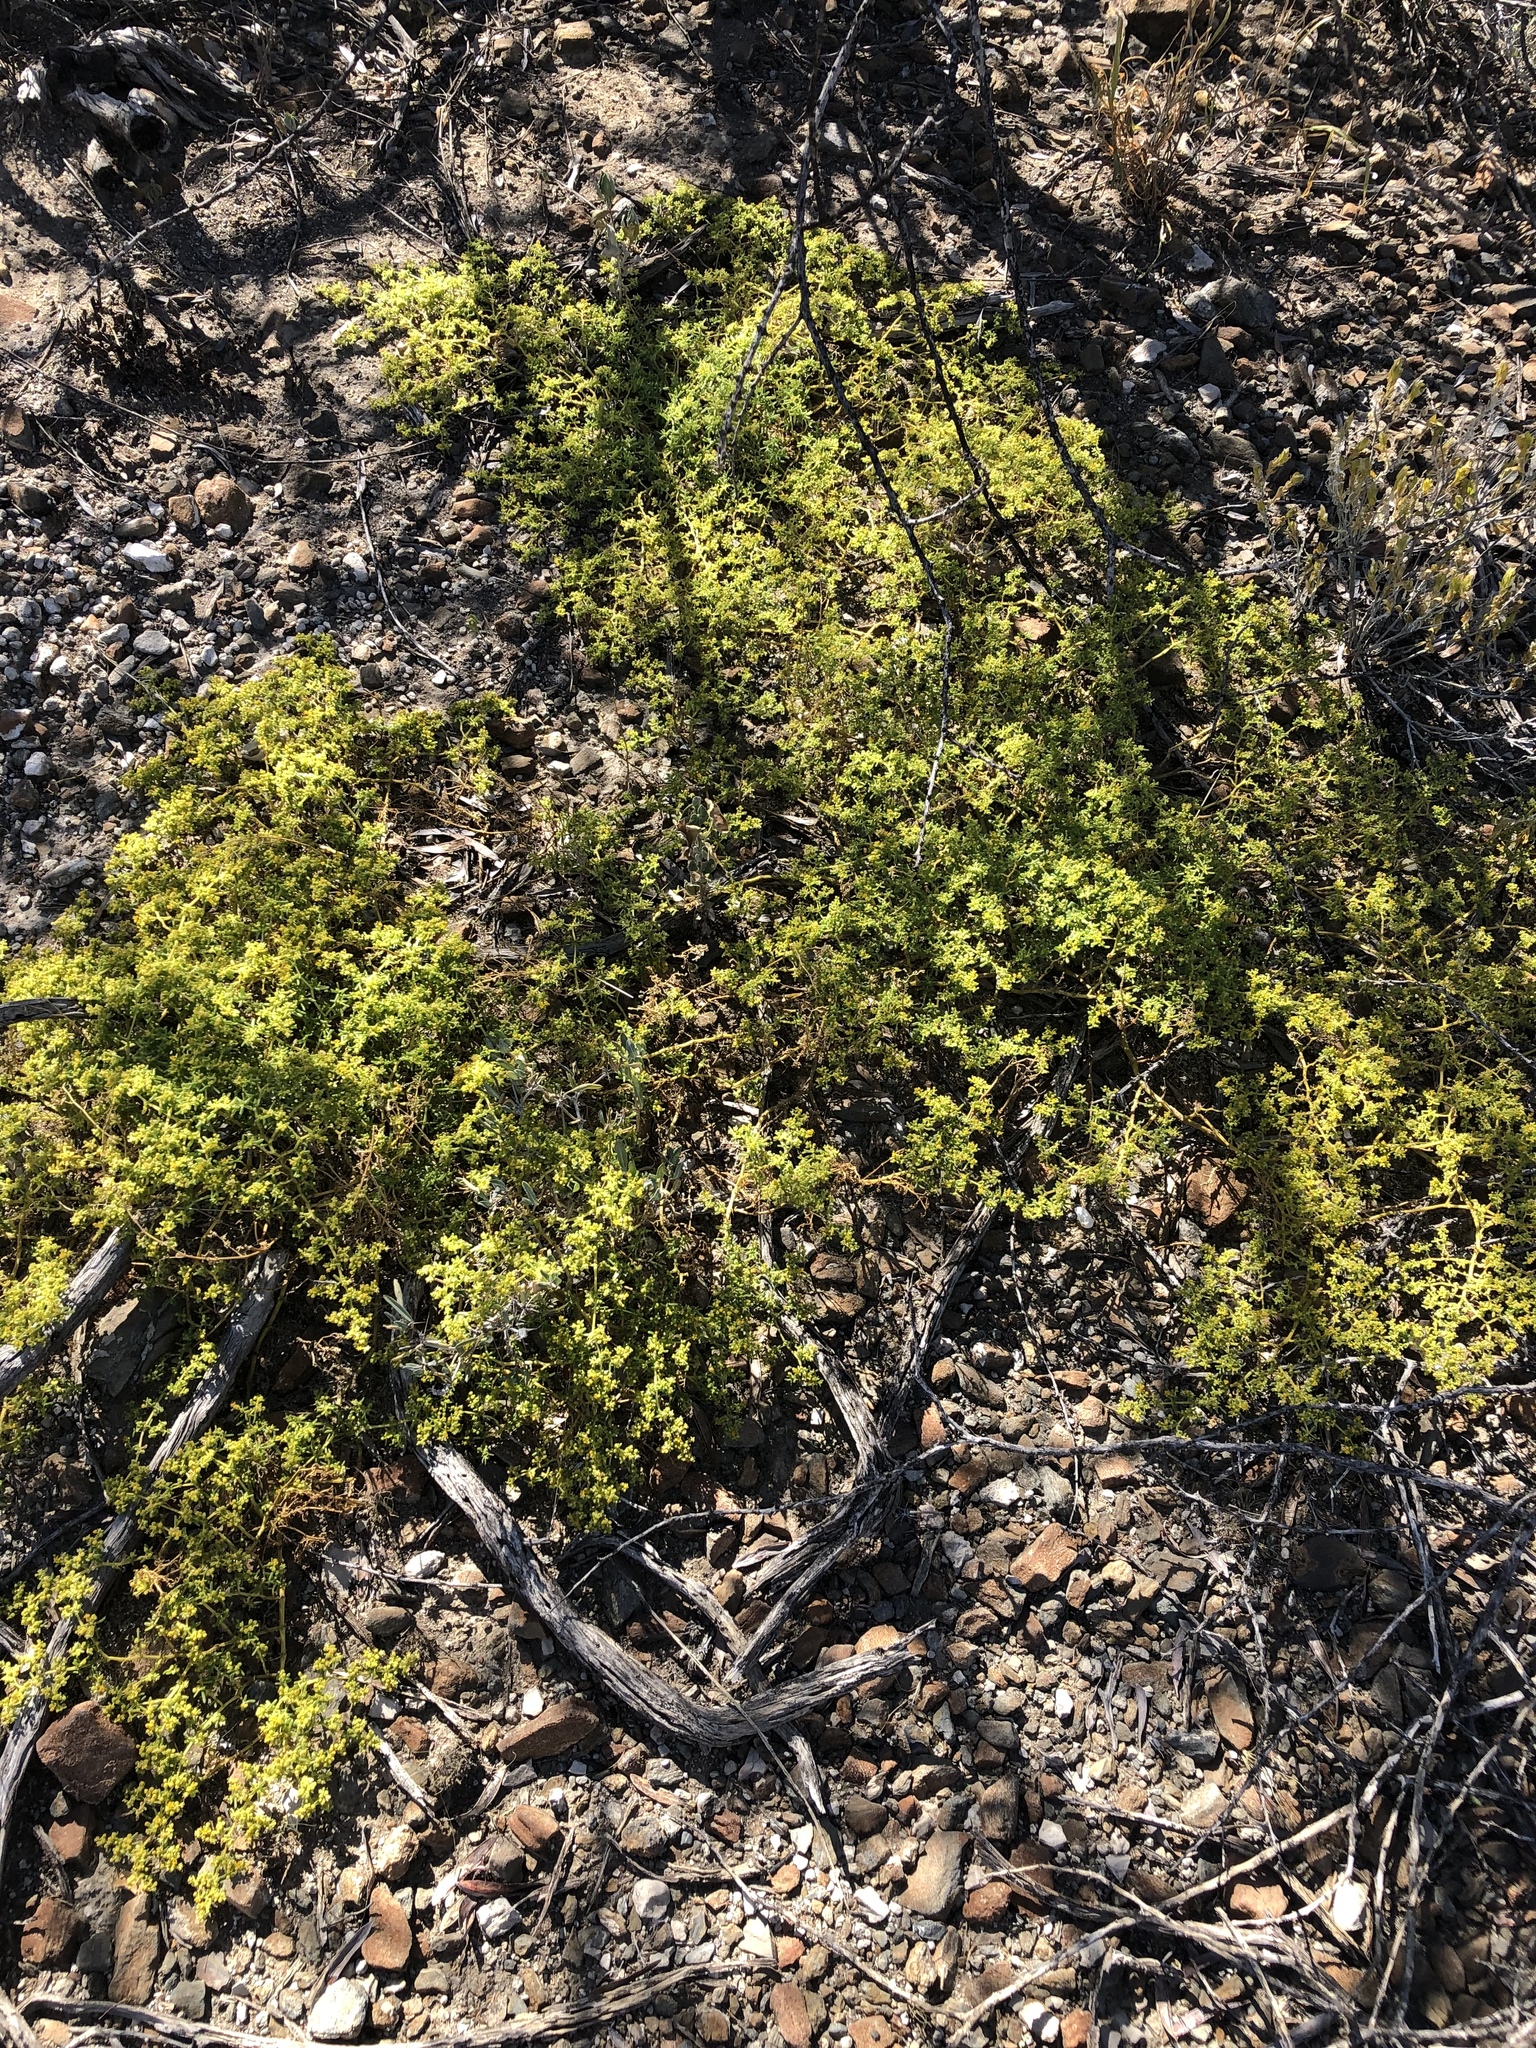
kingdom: Plantae
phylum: Tracheophyta
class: Magnoliopsida
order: Zygophyllales
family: Zygophyllaceae
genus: Tetraena
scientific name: Tetraena simplex
